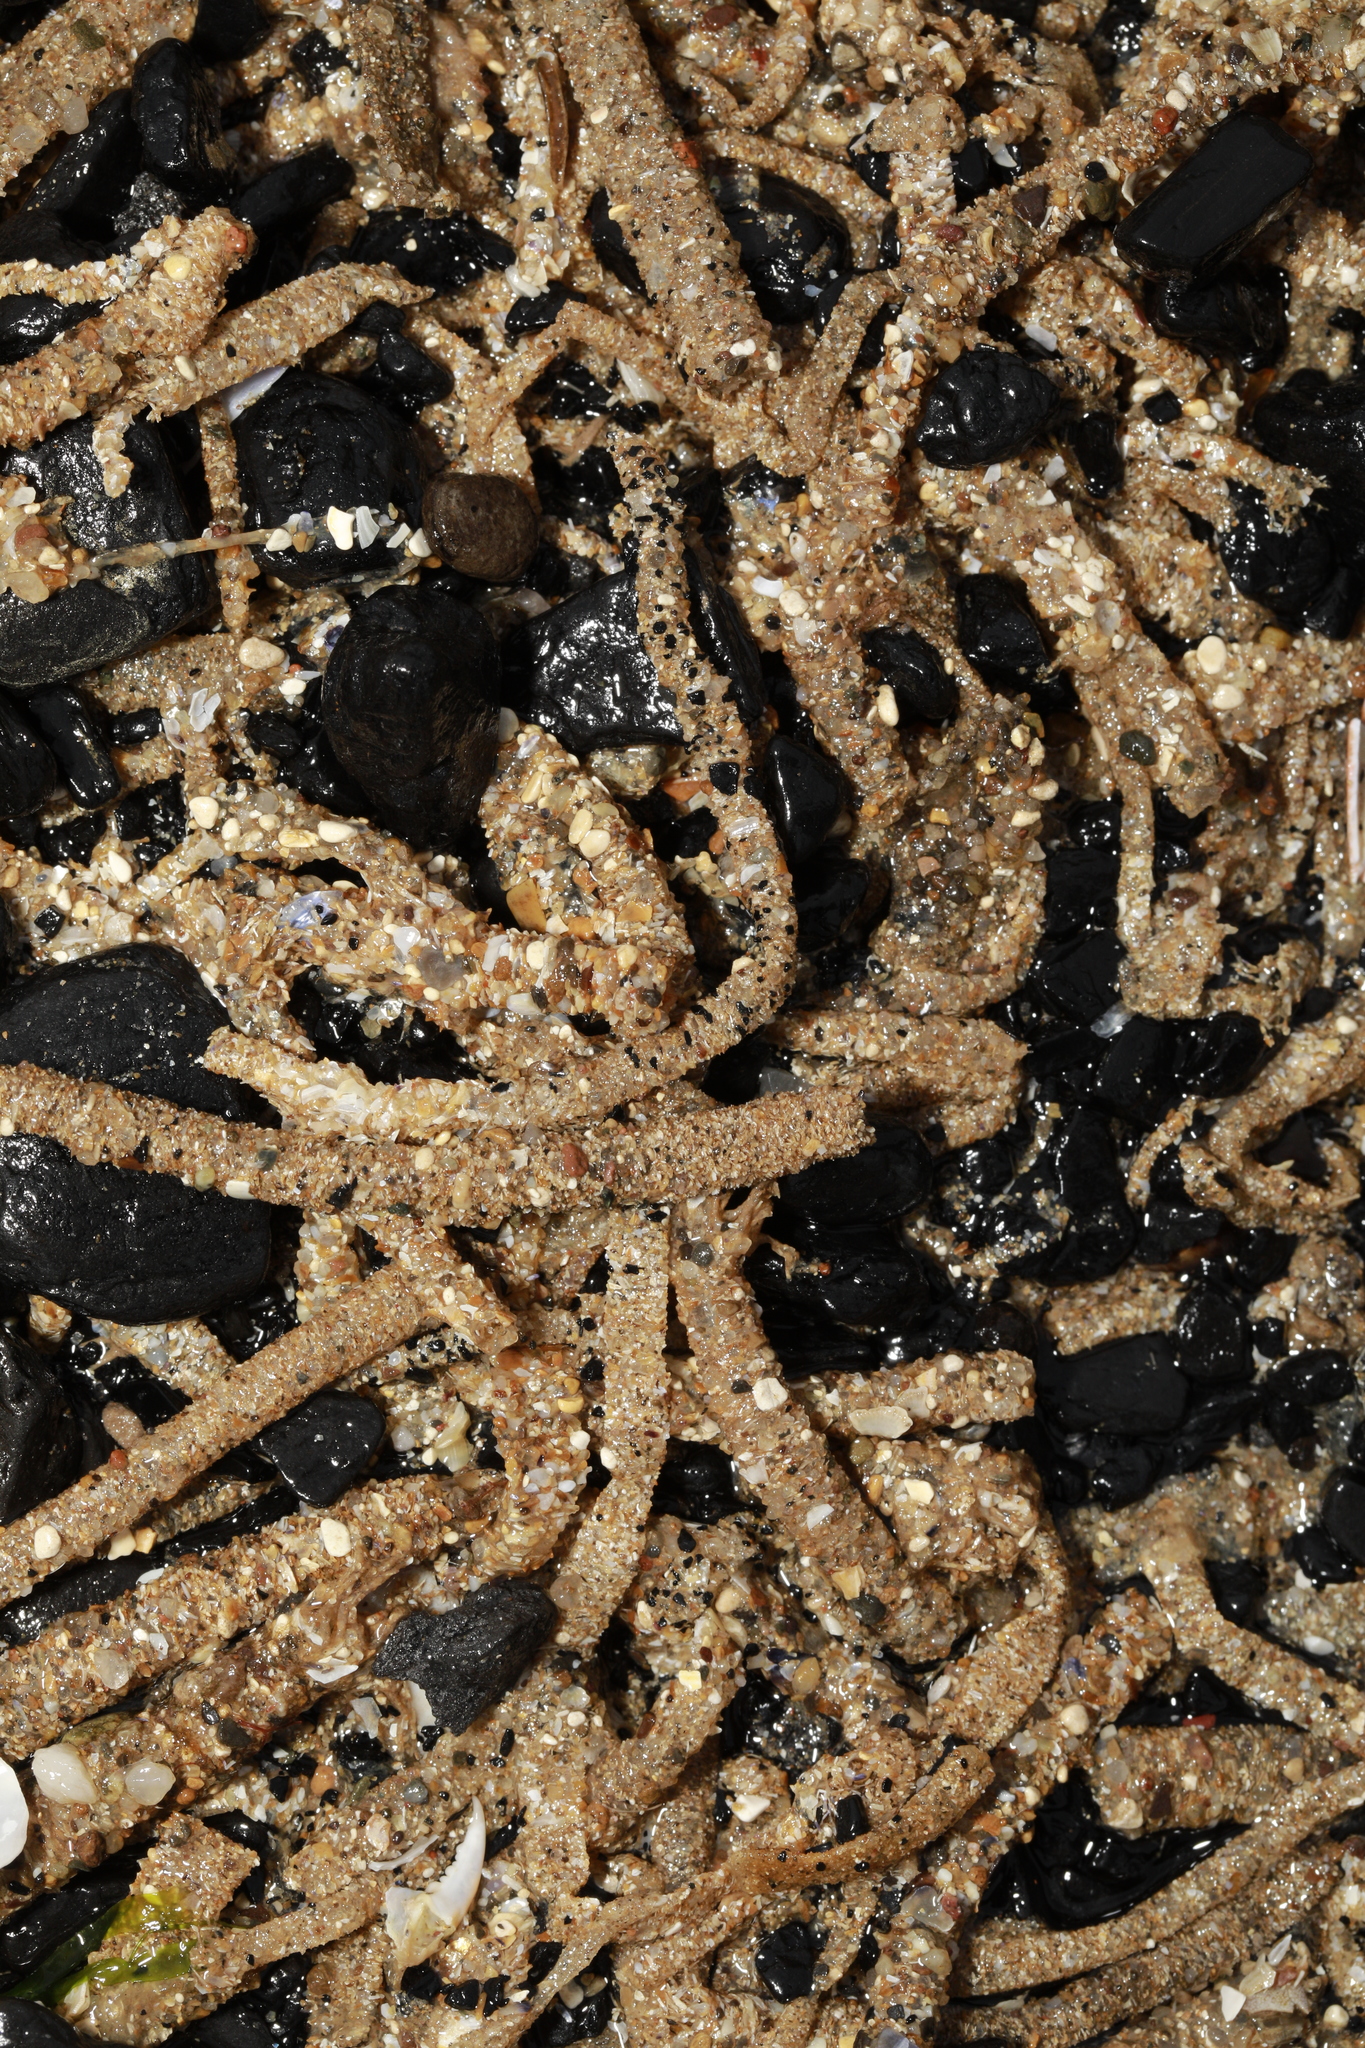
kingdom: Animalia
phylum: Annelida
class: Polychaeta
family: Terebellidae
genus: Lanice
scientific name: Lanice conchilega
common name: Sand mason
